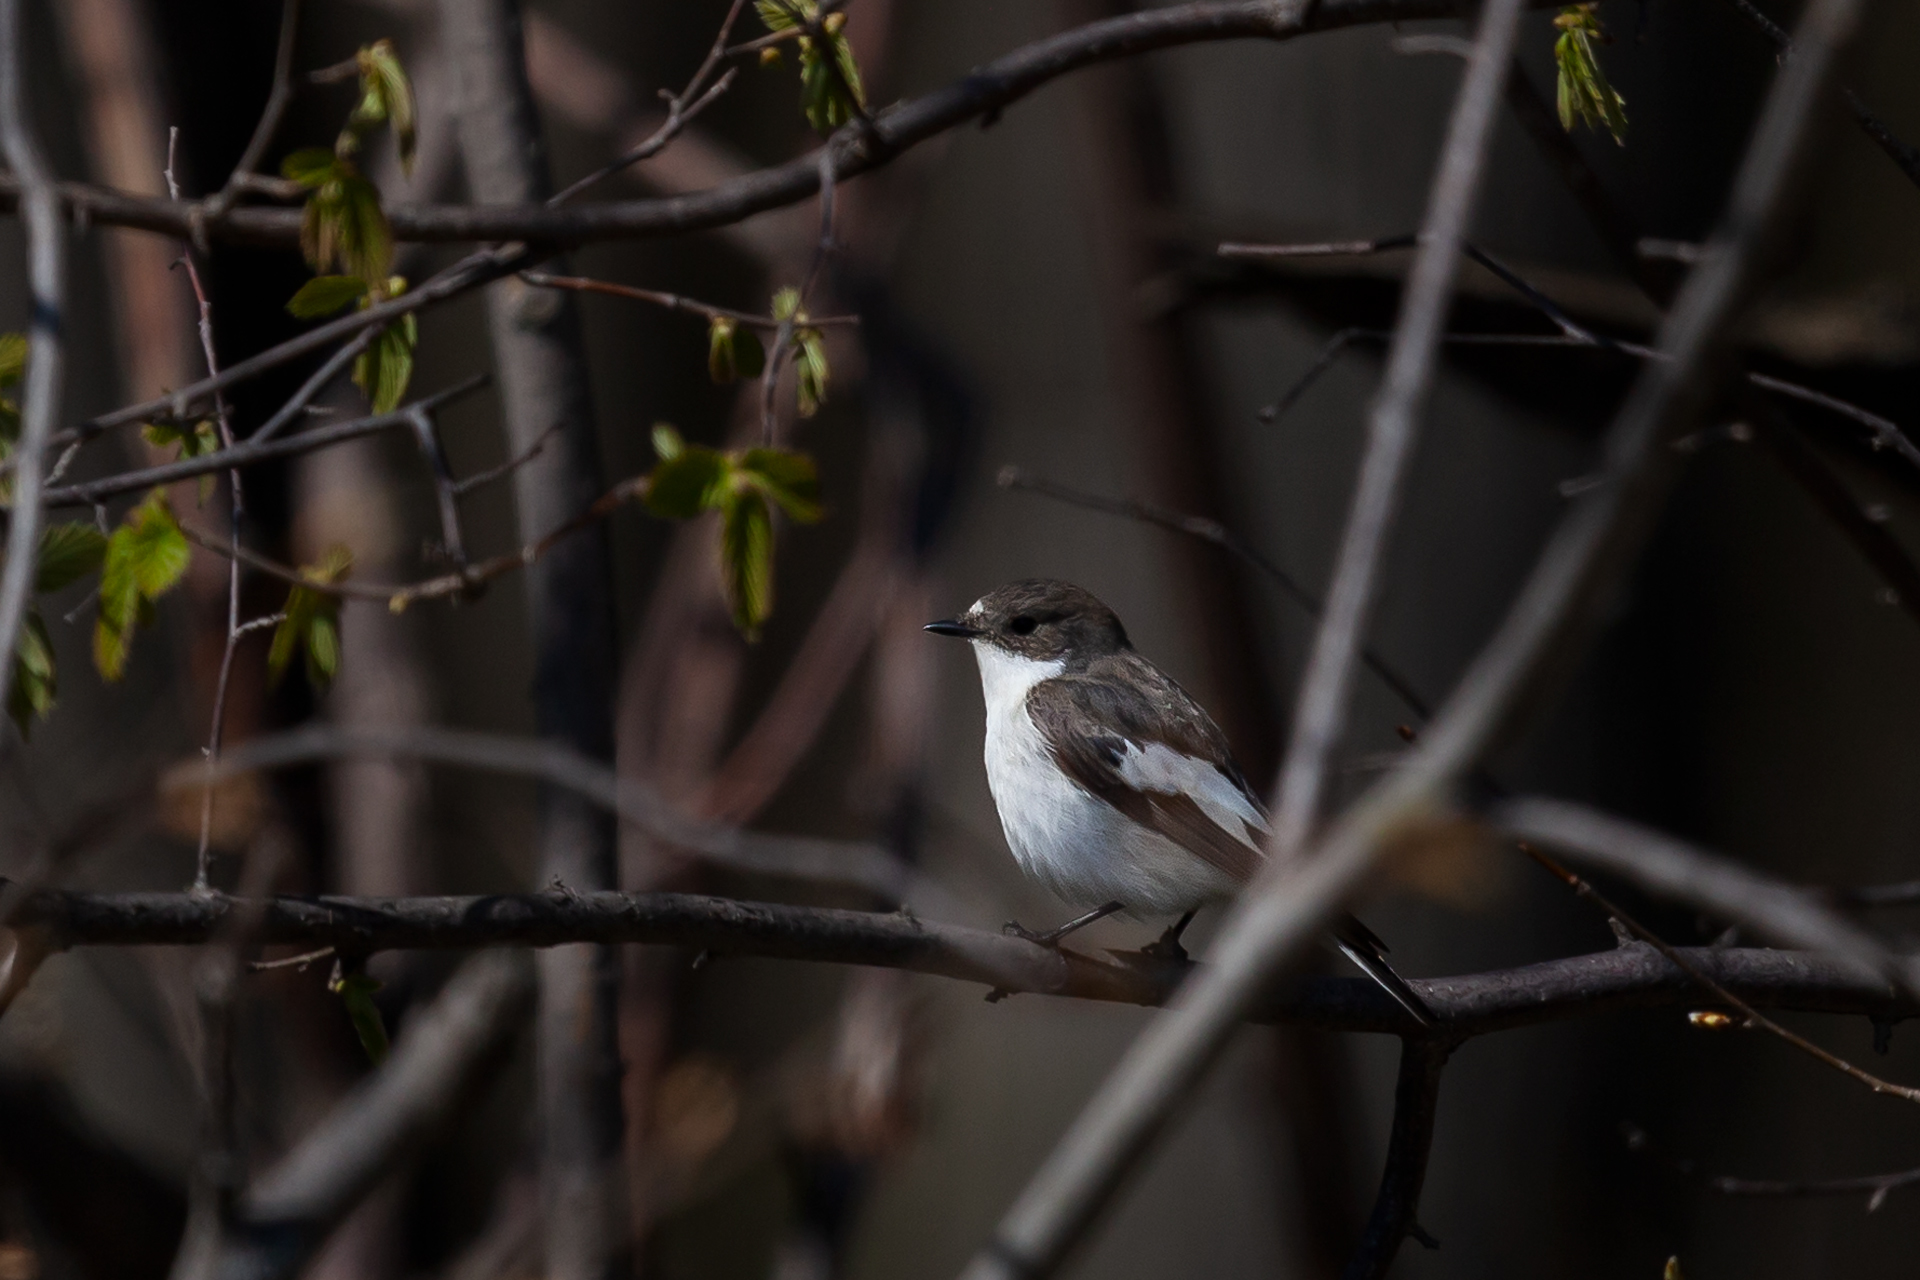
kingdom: Animalia
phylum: Chordata
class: Aves
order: Passeriformes
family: Muscicapidae
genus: Ficedula
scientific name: Ficedula hypoleuca
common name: European pied flycatcher
